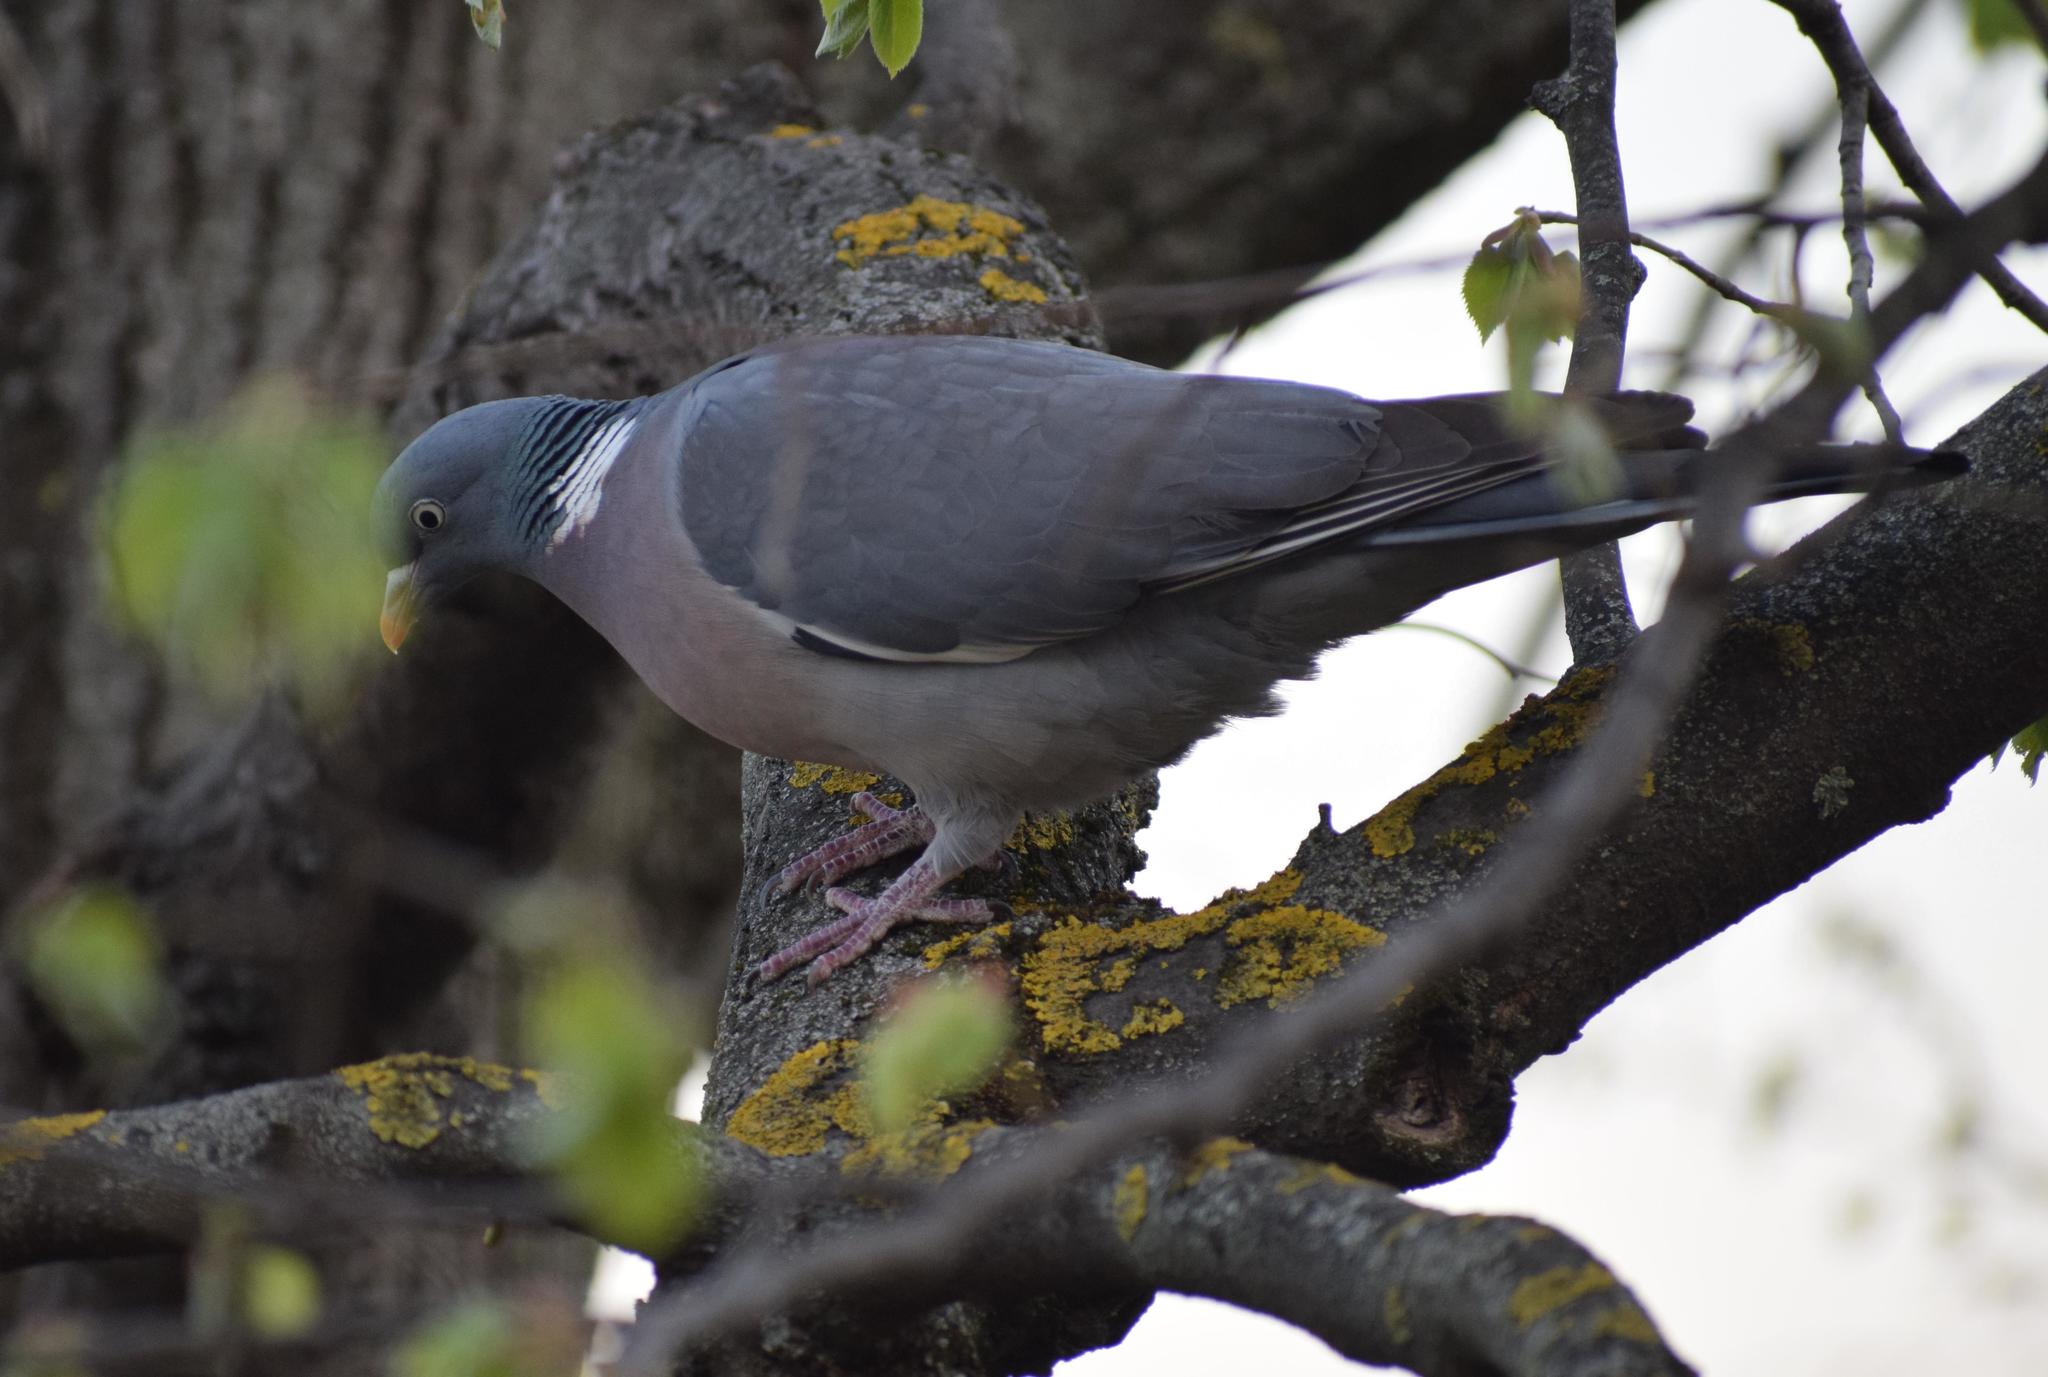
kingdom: Animalia
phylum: Chordata
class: Aves
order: Columbiformes
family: Columbidae
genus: Columba
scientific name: Columba palumbus
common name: Common wood pigeon
